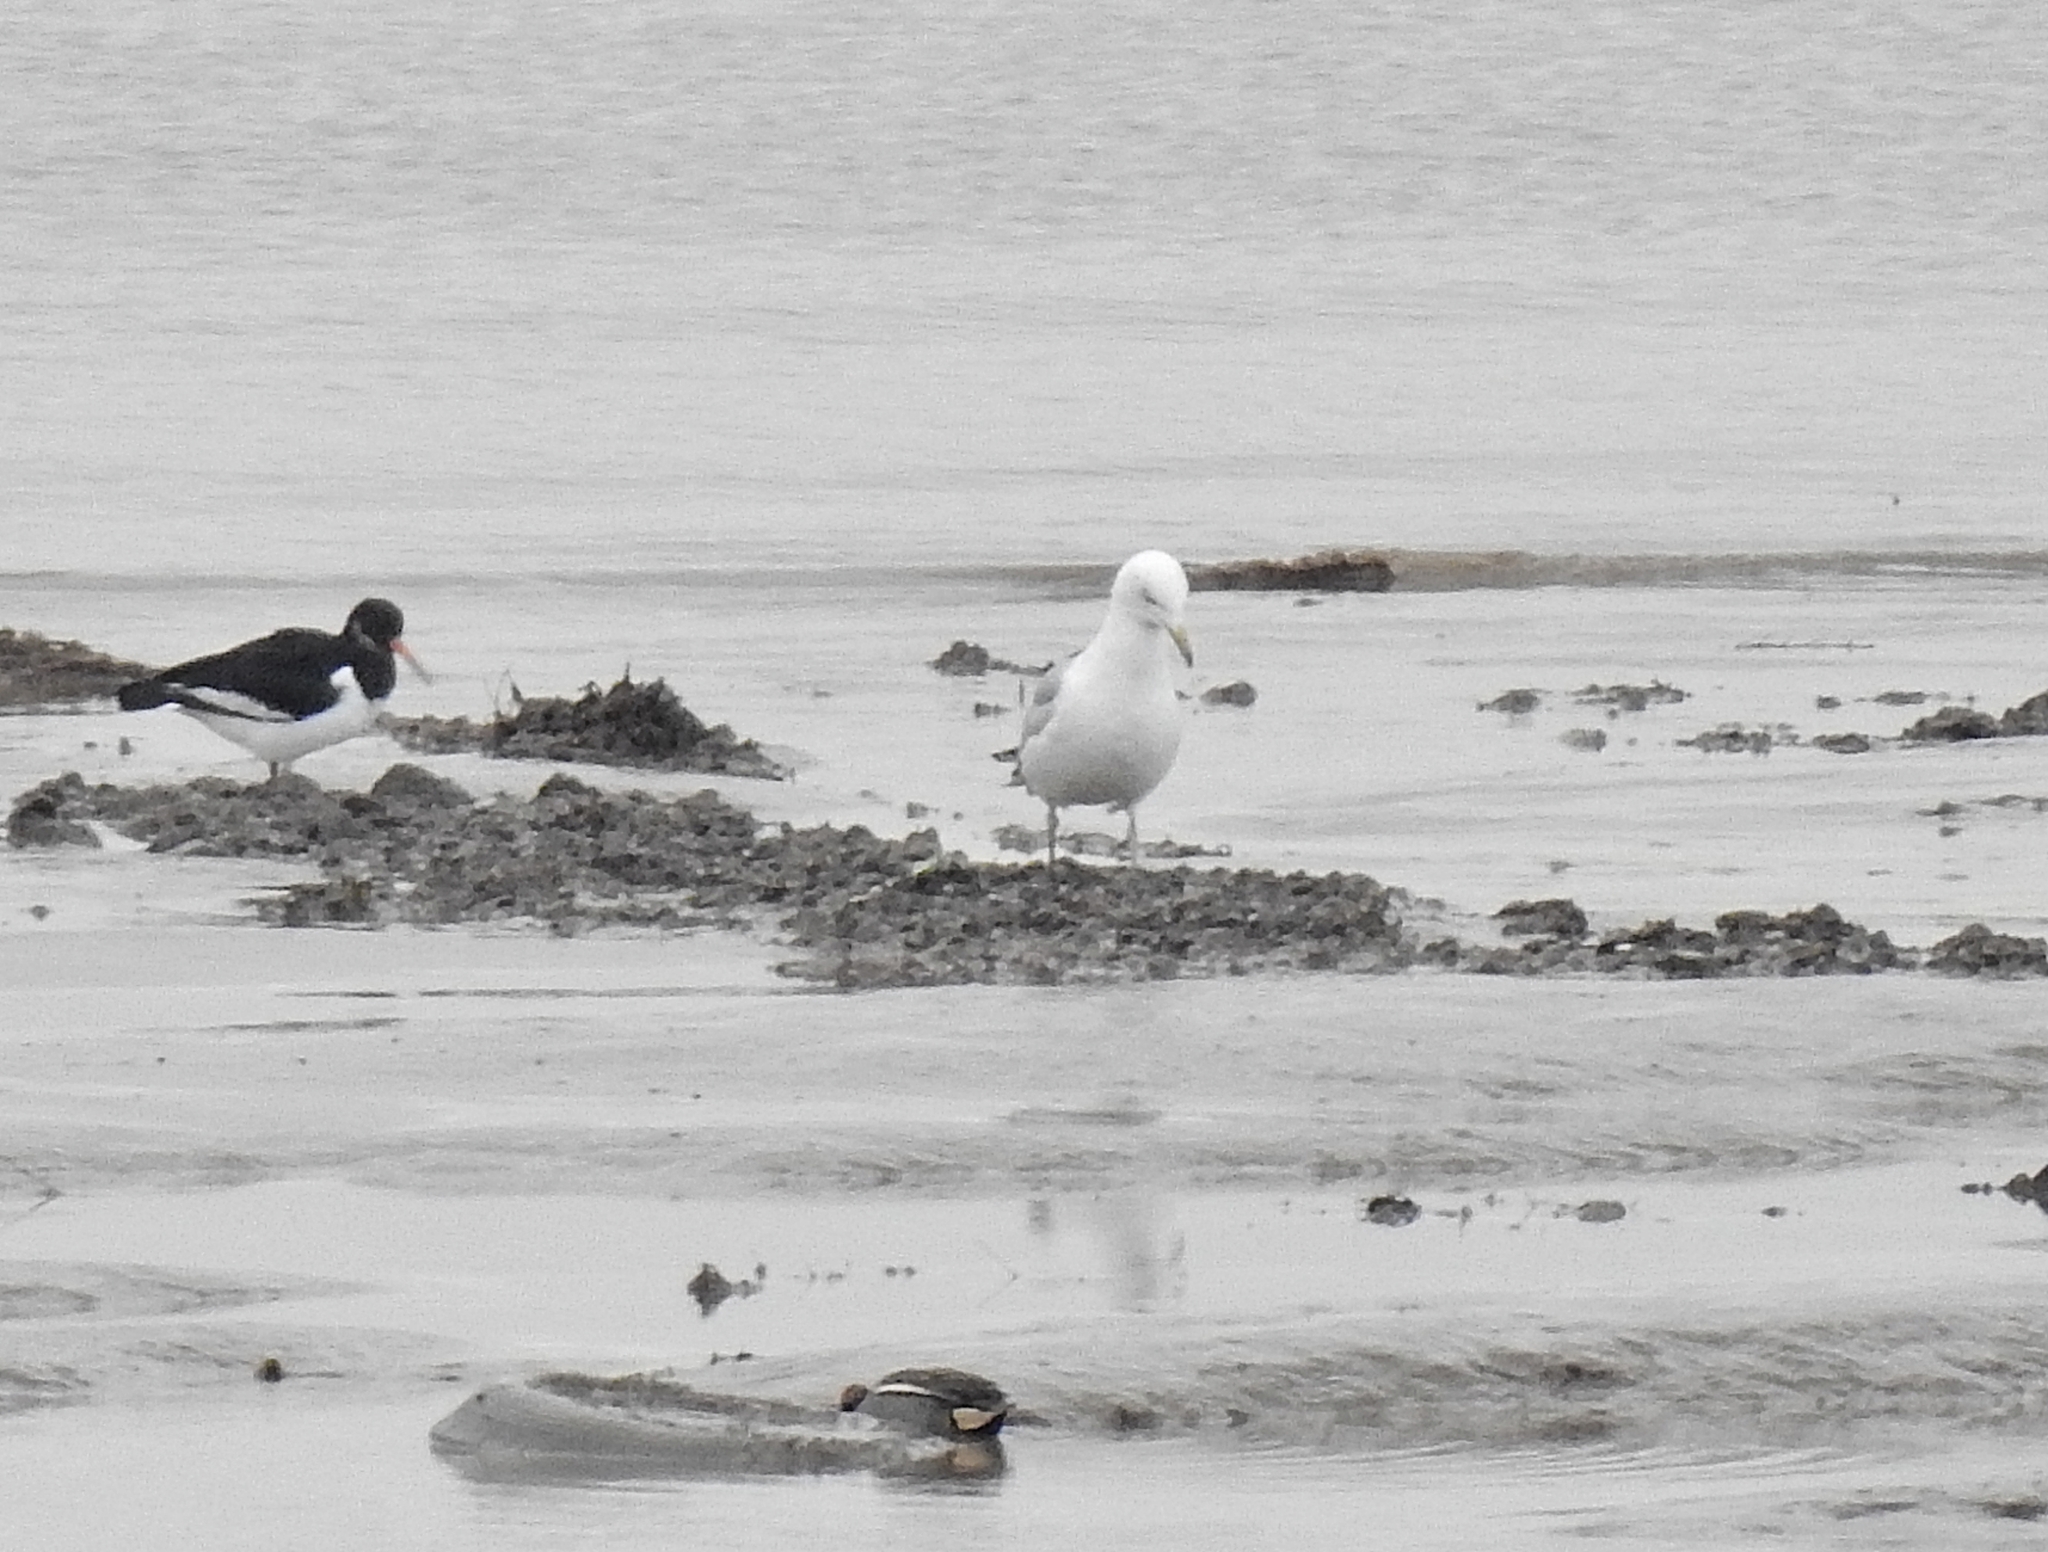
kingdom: Animalia
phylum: Chordata
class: Aves
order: Charadriiformes
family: Haematopodidae
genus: Haematopus
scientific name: Haematopus ostralegus
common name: Eurasian oystercatcher
